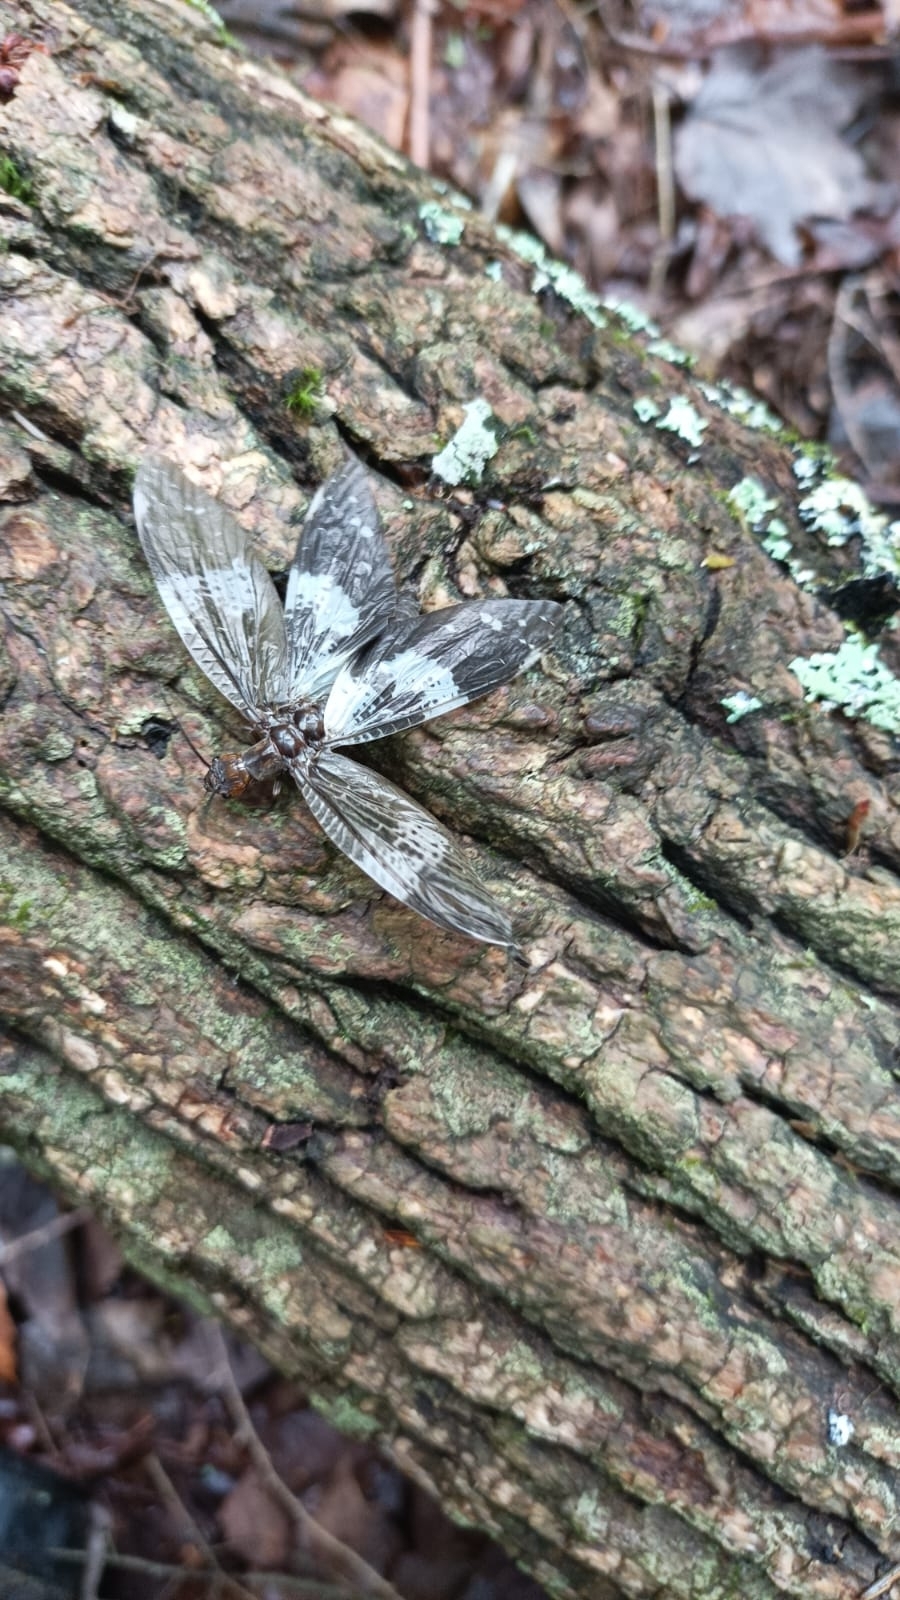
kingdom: Animalia
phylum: Arthropoda
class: Insecta
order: Megaloptera
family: Corydalidae
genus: Nigronia
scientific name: Nigronia fasciata
